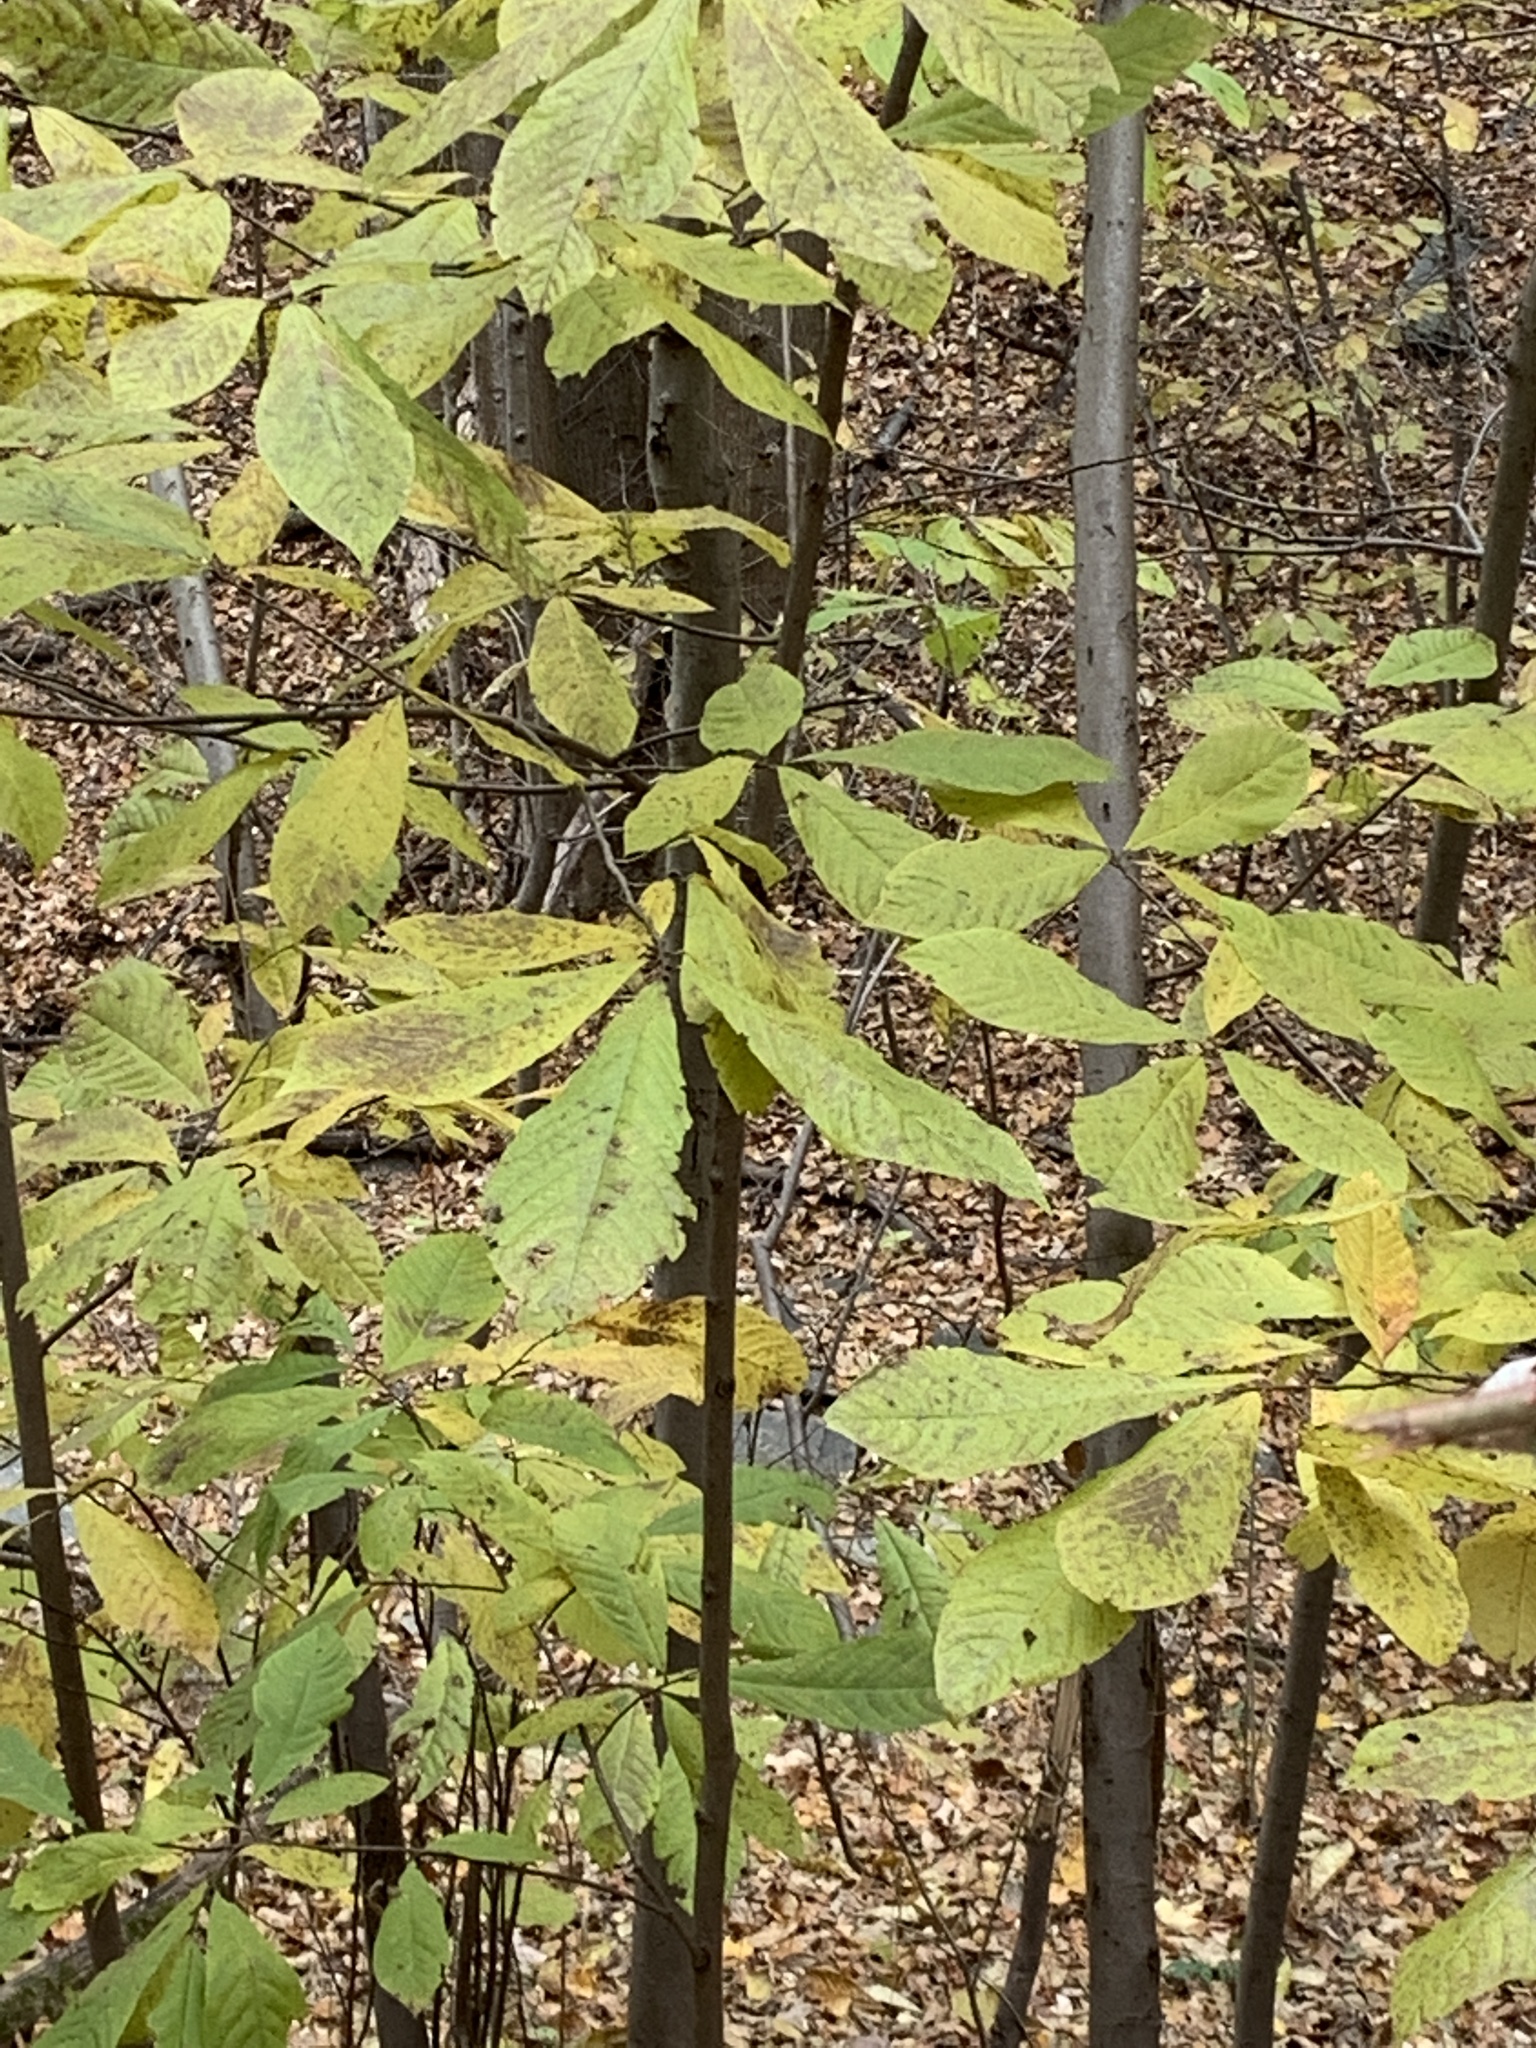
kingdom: Plantae
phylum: Tracheophyta
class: Magnoliopsida
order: Magnoliales
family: Annonaceae
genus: Asimina
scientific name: Asimina triloba
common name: Dog-banana
